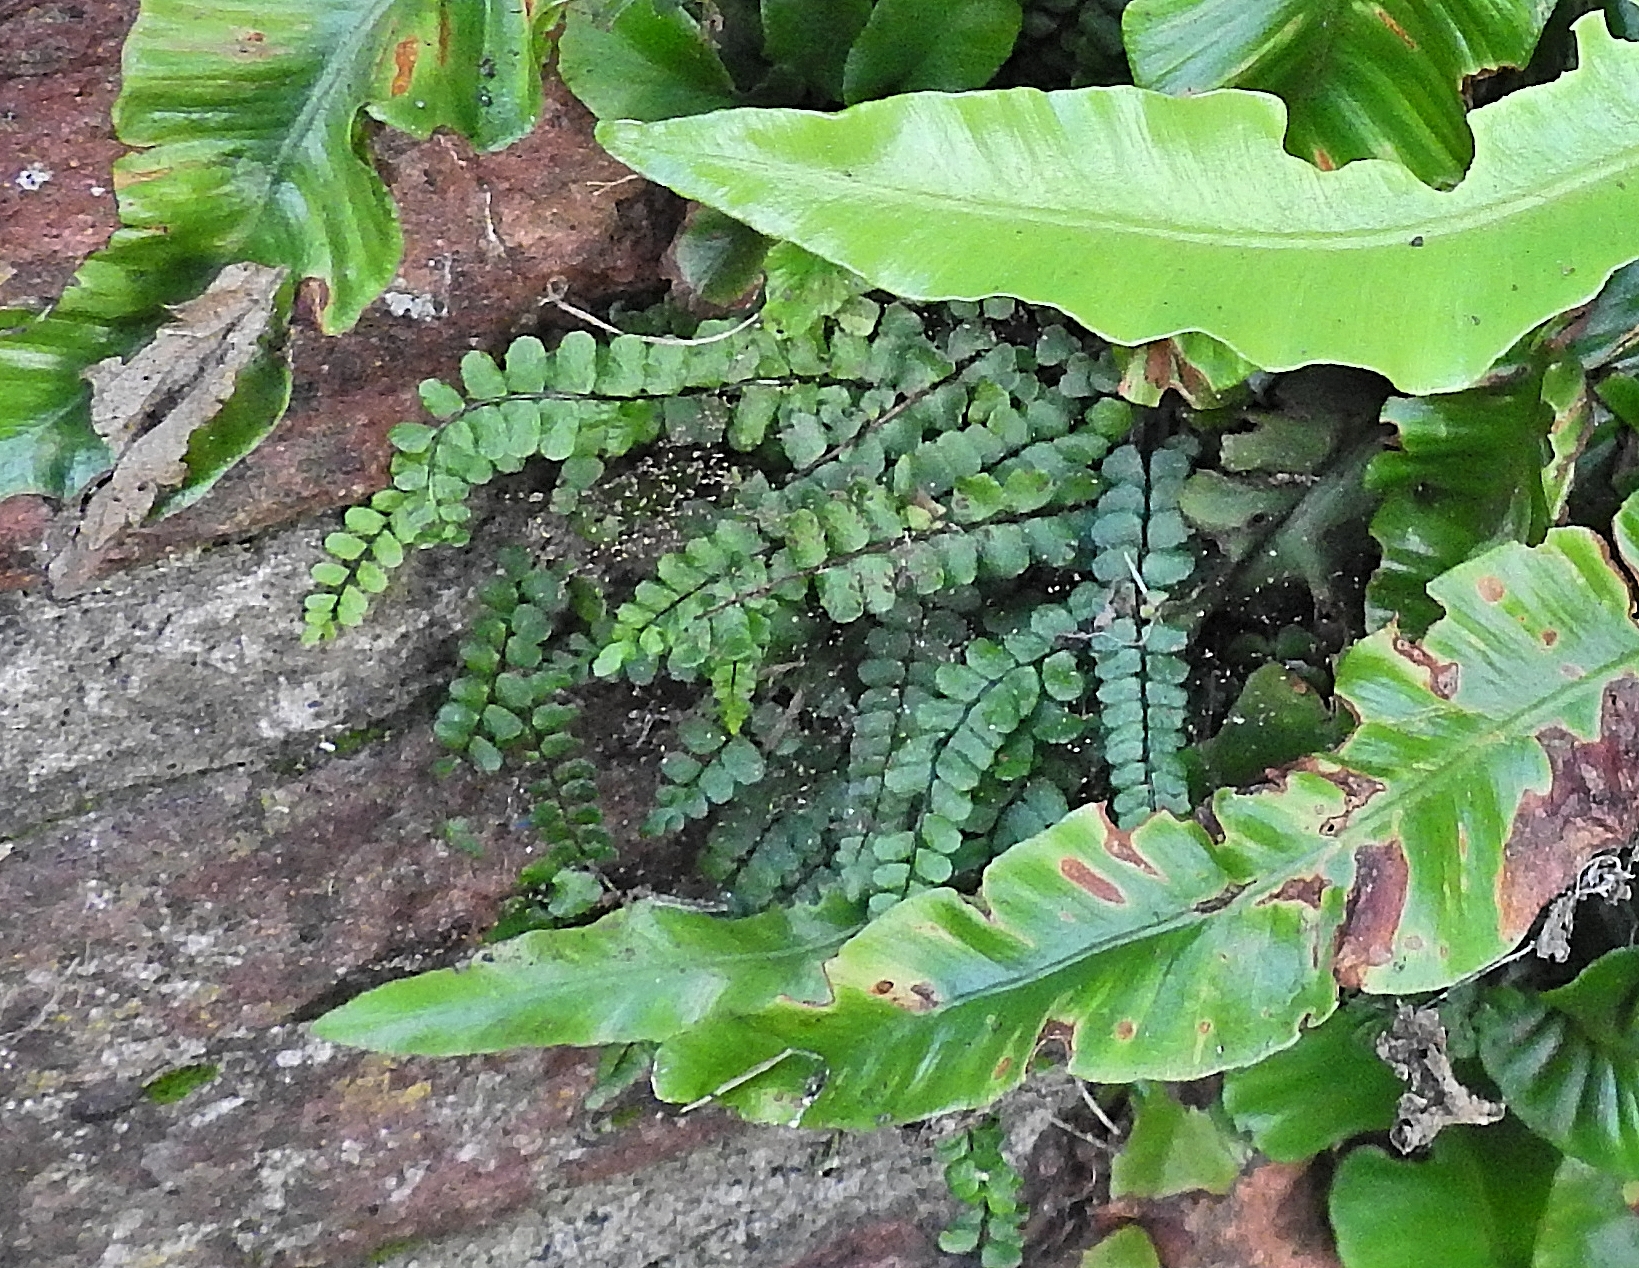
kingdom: Plantae
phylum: Tracheophyta
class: Polypodiopsida
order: Polypodiales
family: Aspleniaceae
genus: Asplenium
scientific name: Asplenium trichomanes
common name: Maidenhair spleenwort
